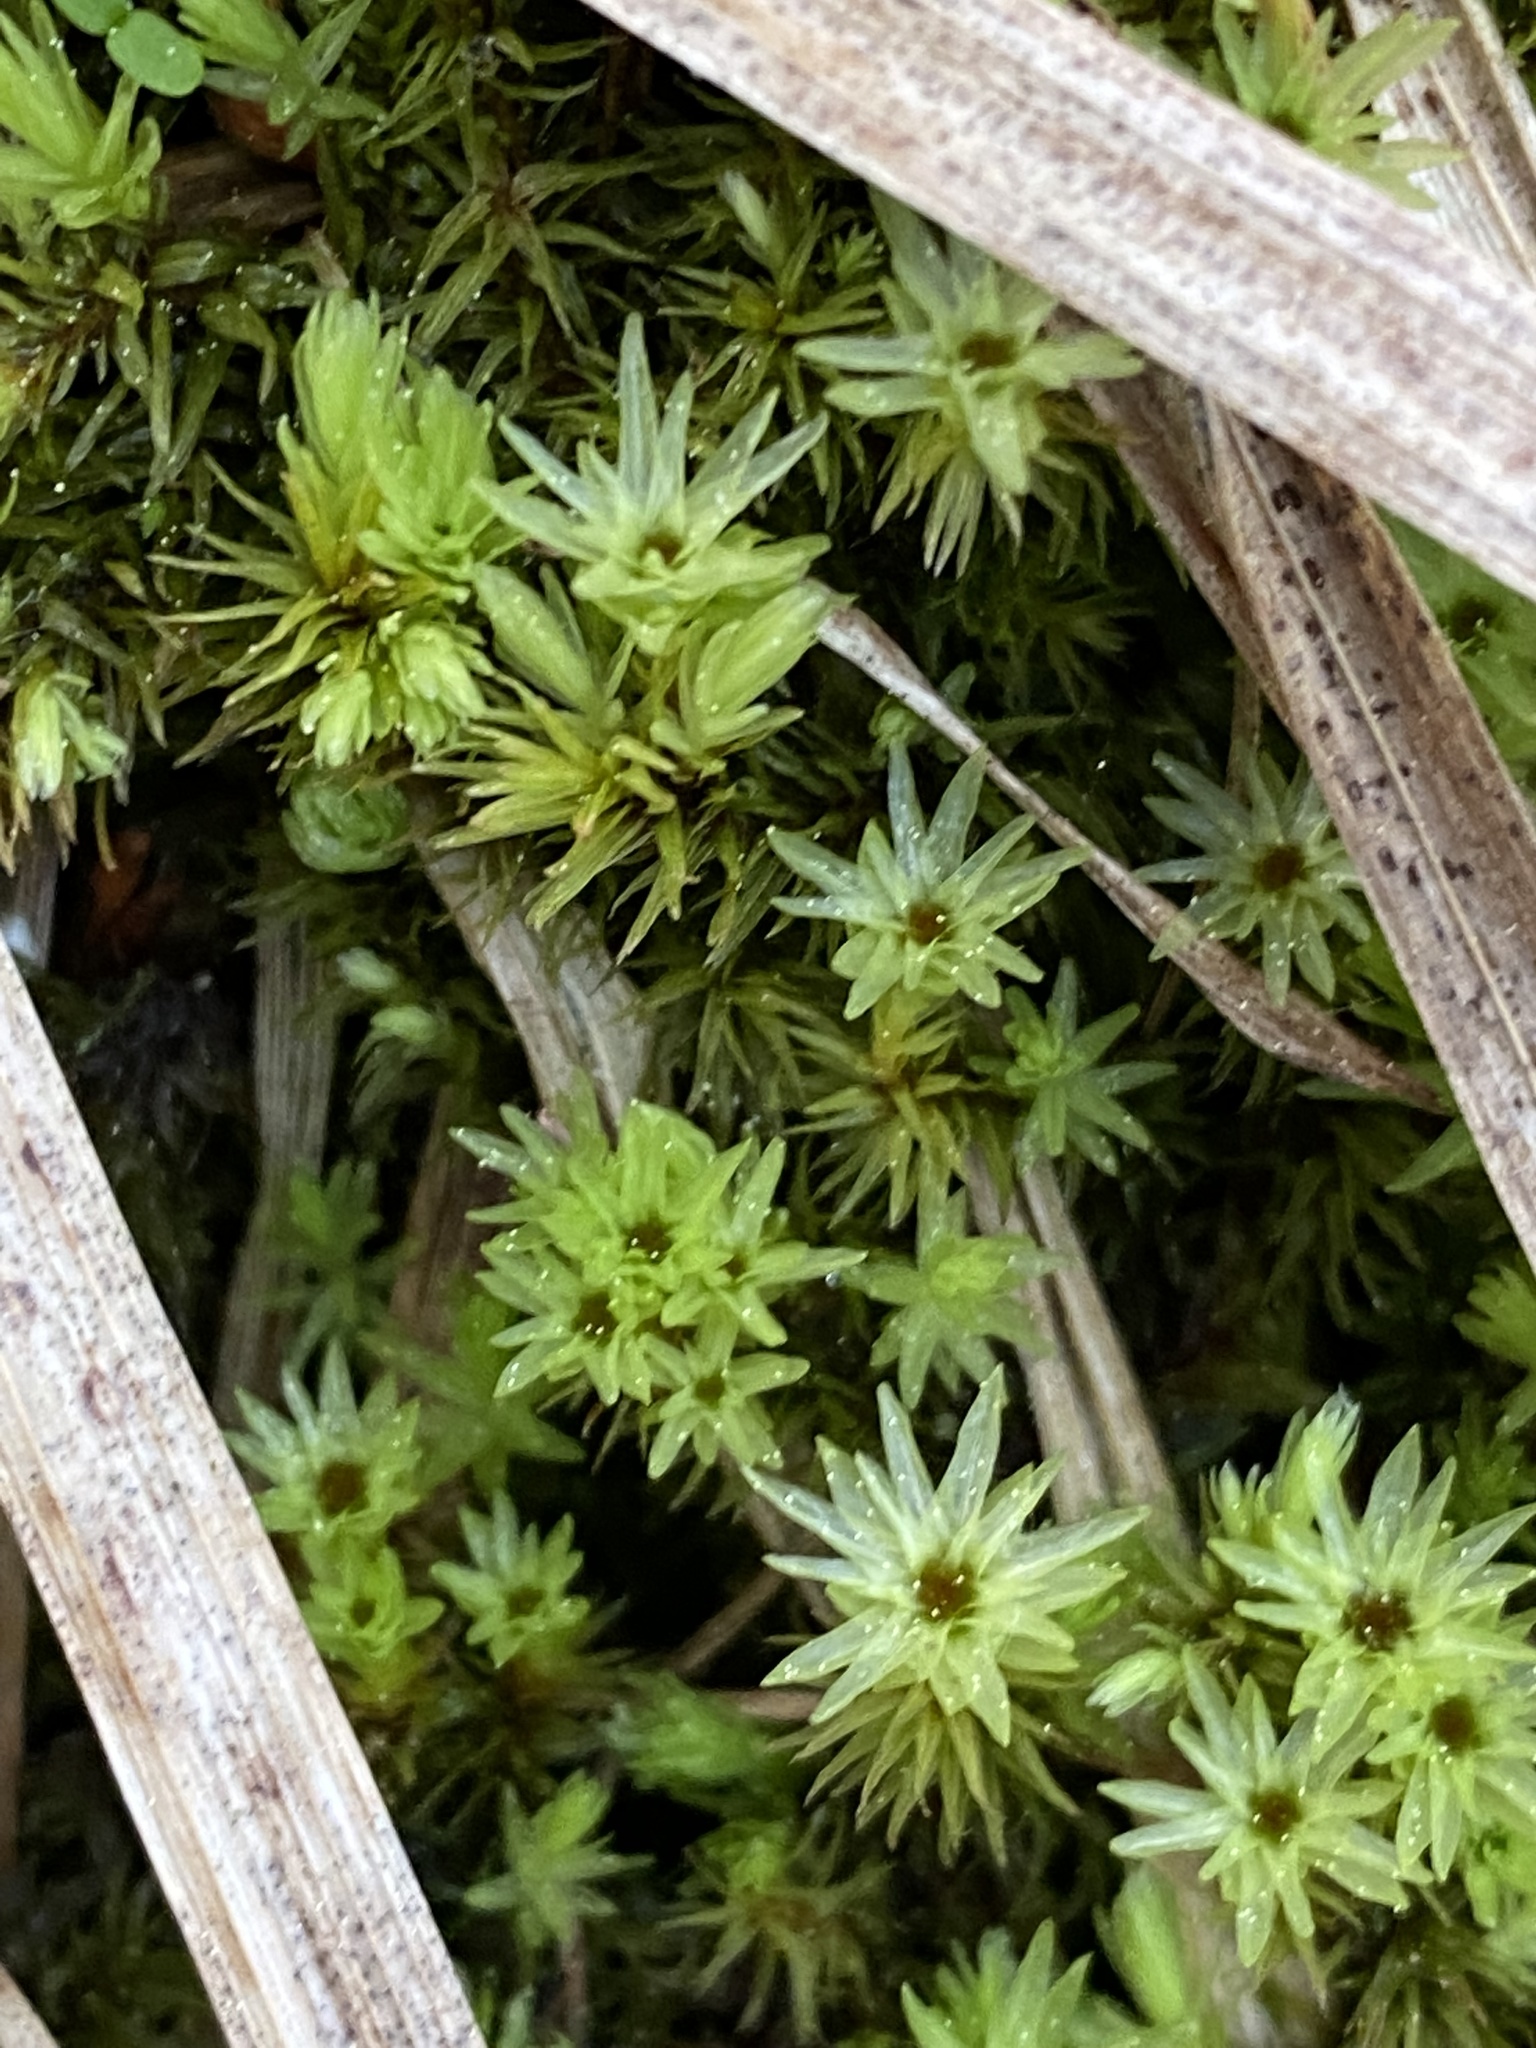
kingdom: Plantae
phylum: Bryophyta
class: Bryopsida
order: Aulacomniales
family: Aulacomniaceae
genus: Aulacomnium
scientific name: Aulacomnium palustre
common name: Bog groove-moss
